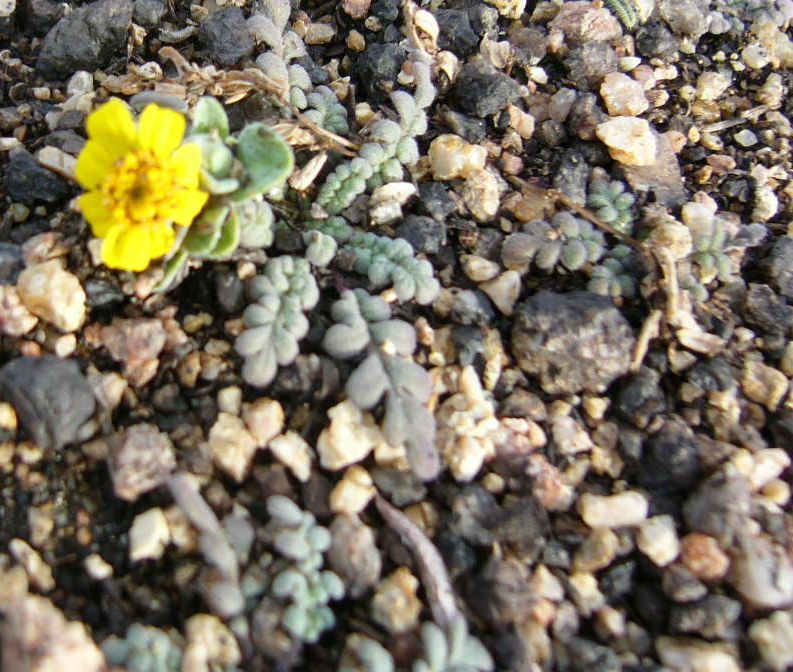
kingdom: Plantae
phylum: Tracheophyta
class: Magnoliopsida
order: Asterales
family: Asteraceae
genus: Eriophyllum
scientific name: Eriophyllum wallacei
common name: Wallace's woolly daisy
